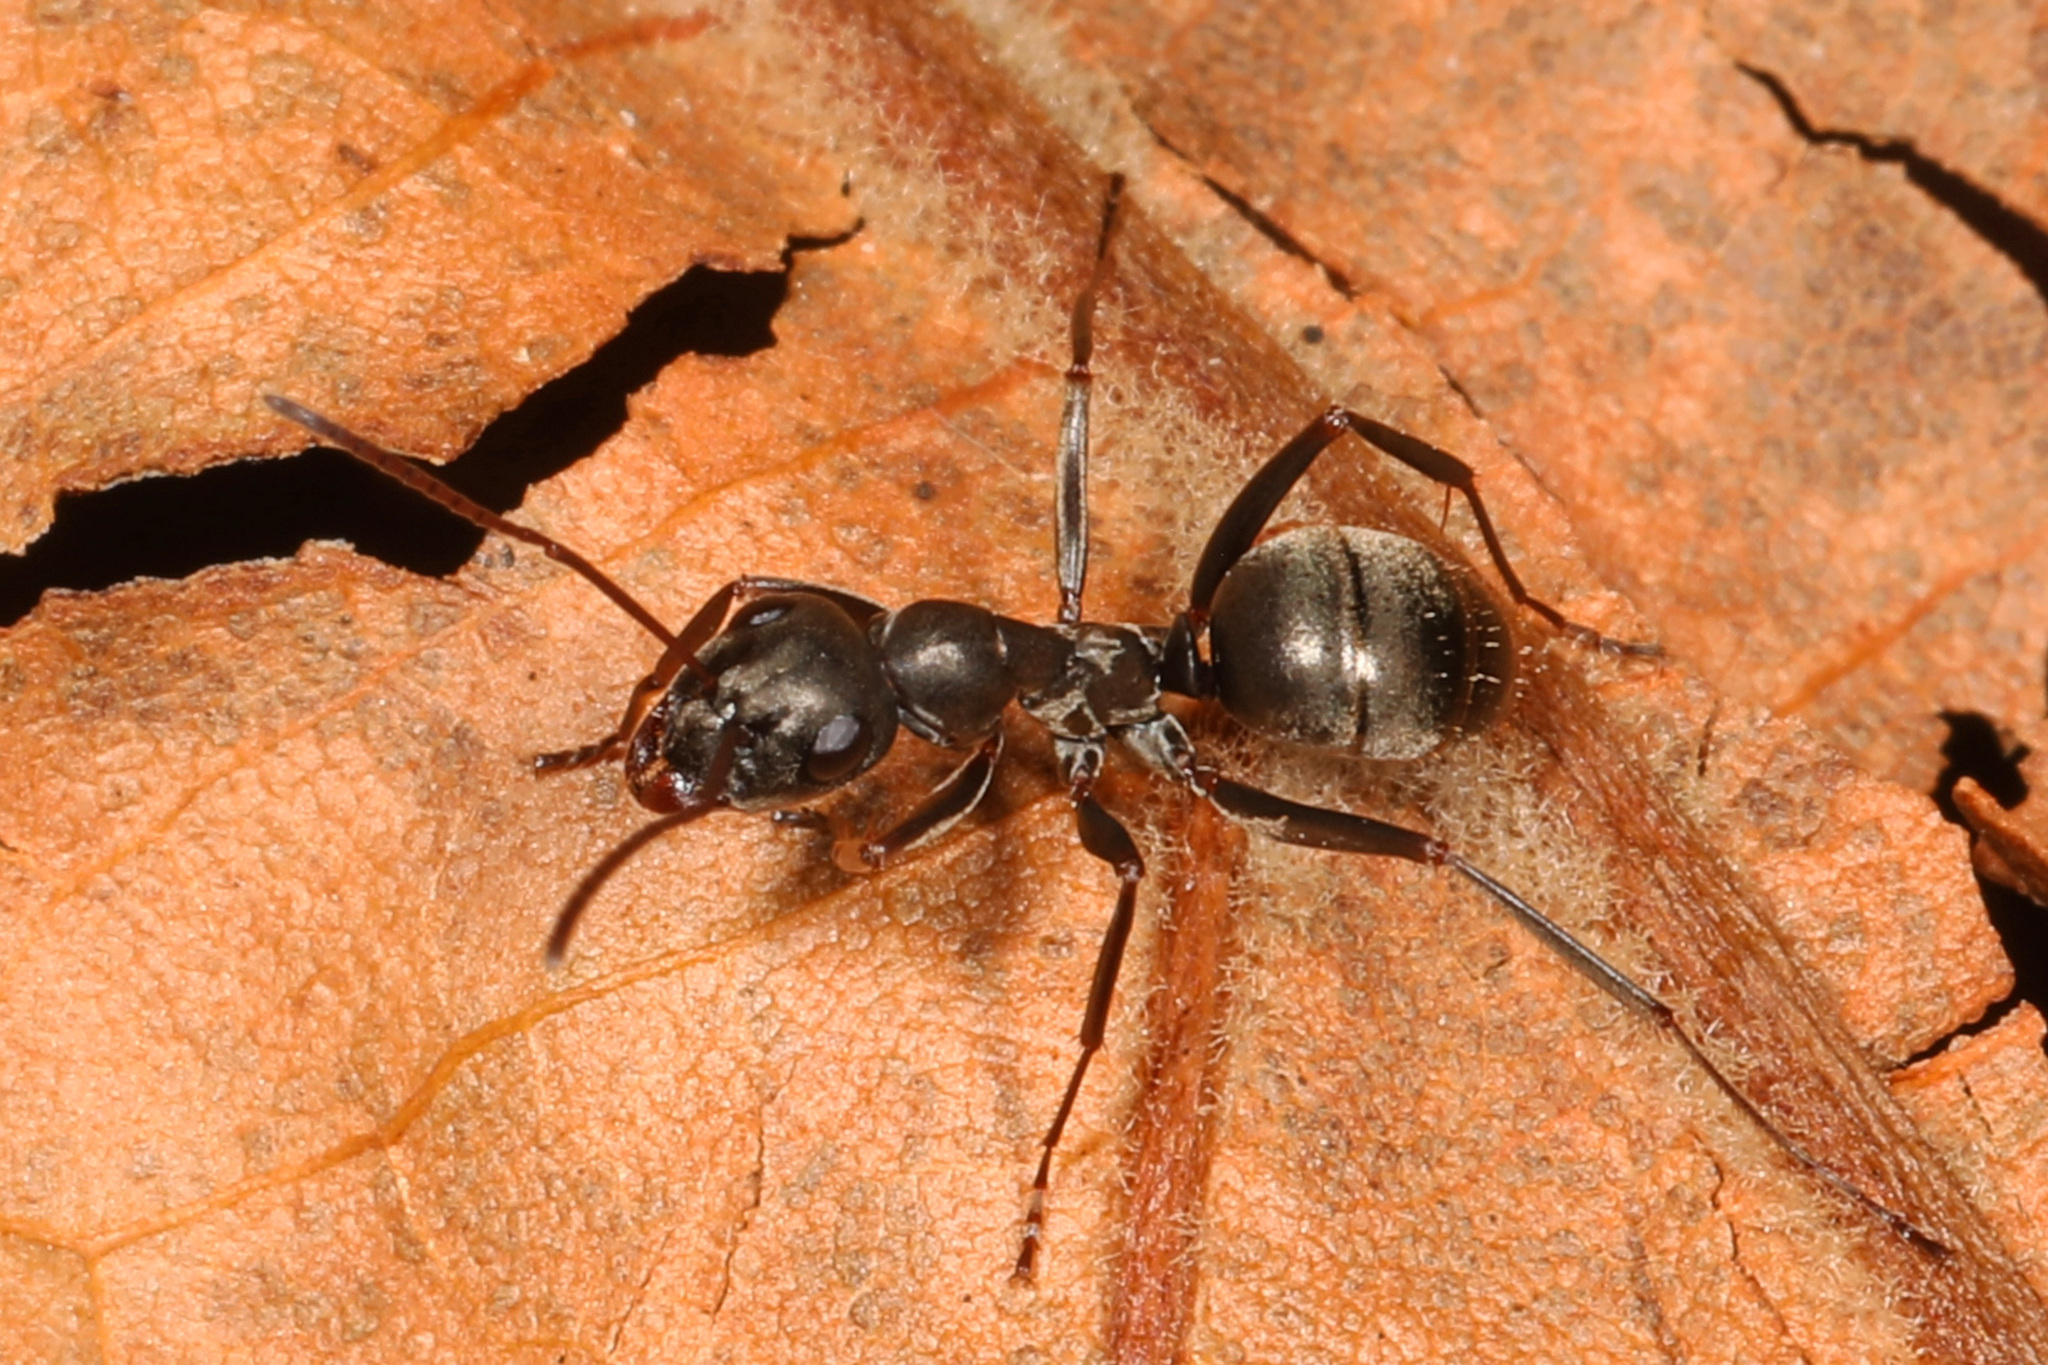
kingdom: Animalia
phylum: Arthropoda
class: Insecta
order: Hymenoptera
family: Formicidae
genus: Formica
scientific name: Formica subsericea
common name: Silky field ant
